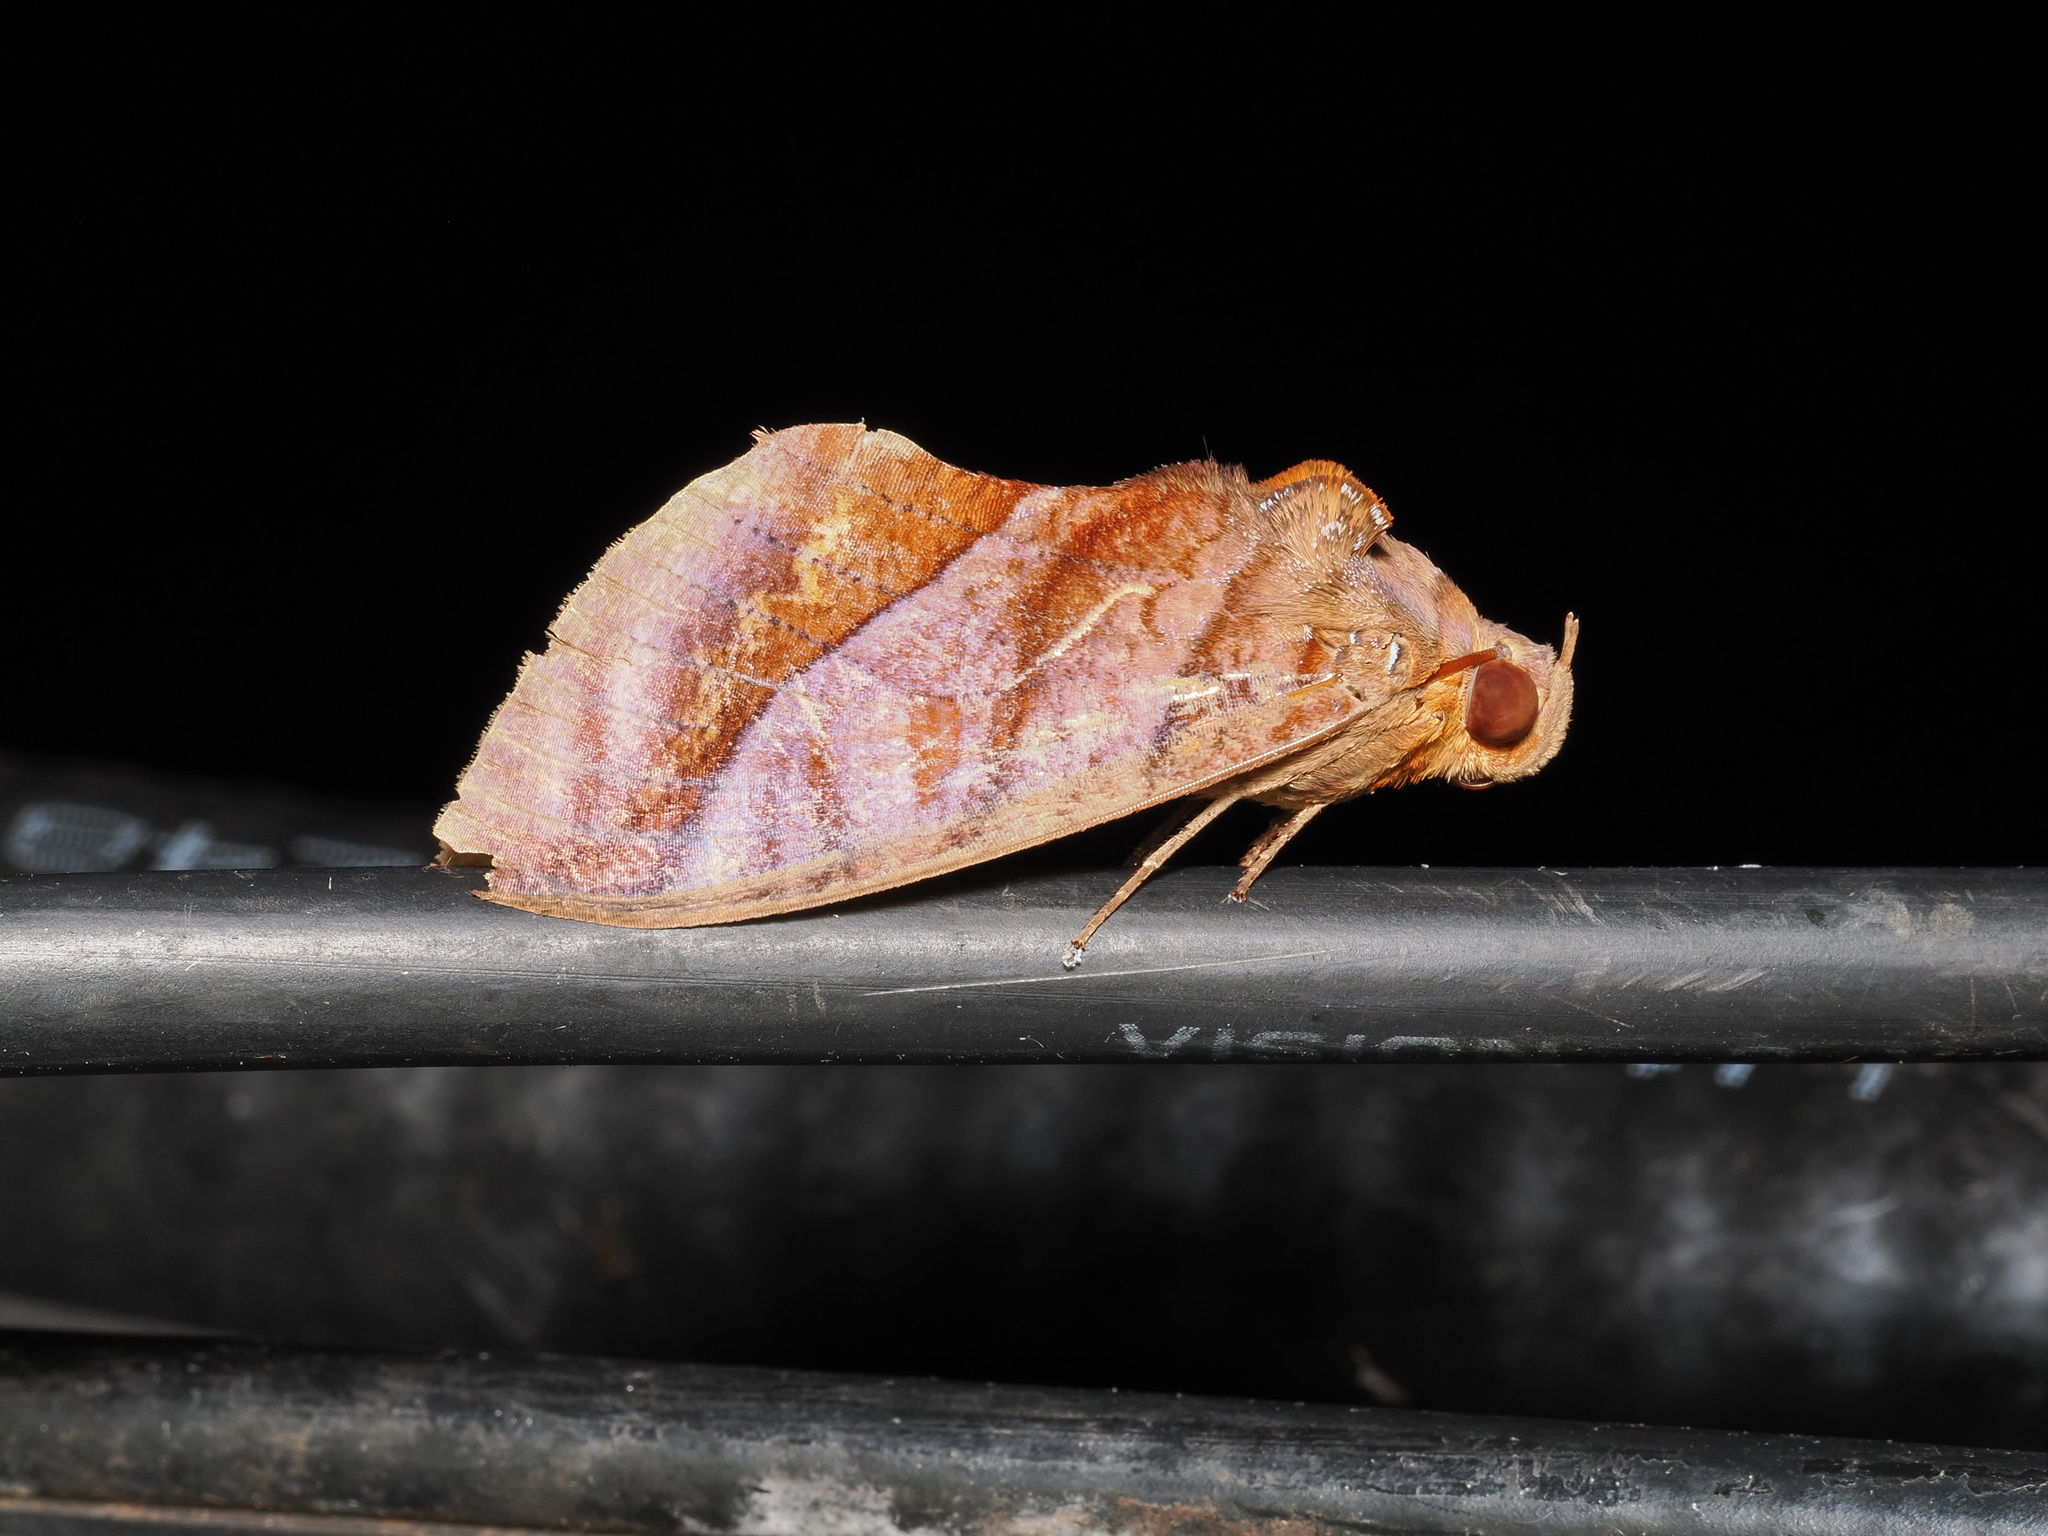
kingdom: Animalia
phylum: Arthropoda
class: Insecta
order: Lepidoptera
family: Erebidae
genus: Eudocima
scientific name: Eudocima homaena
